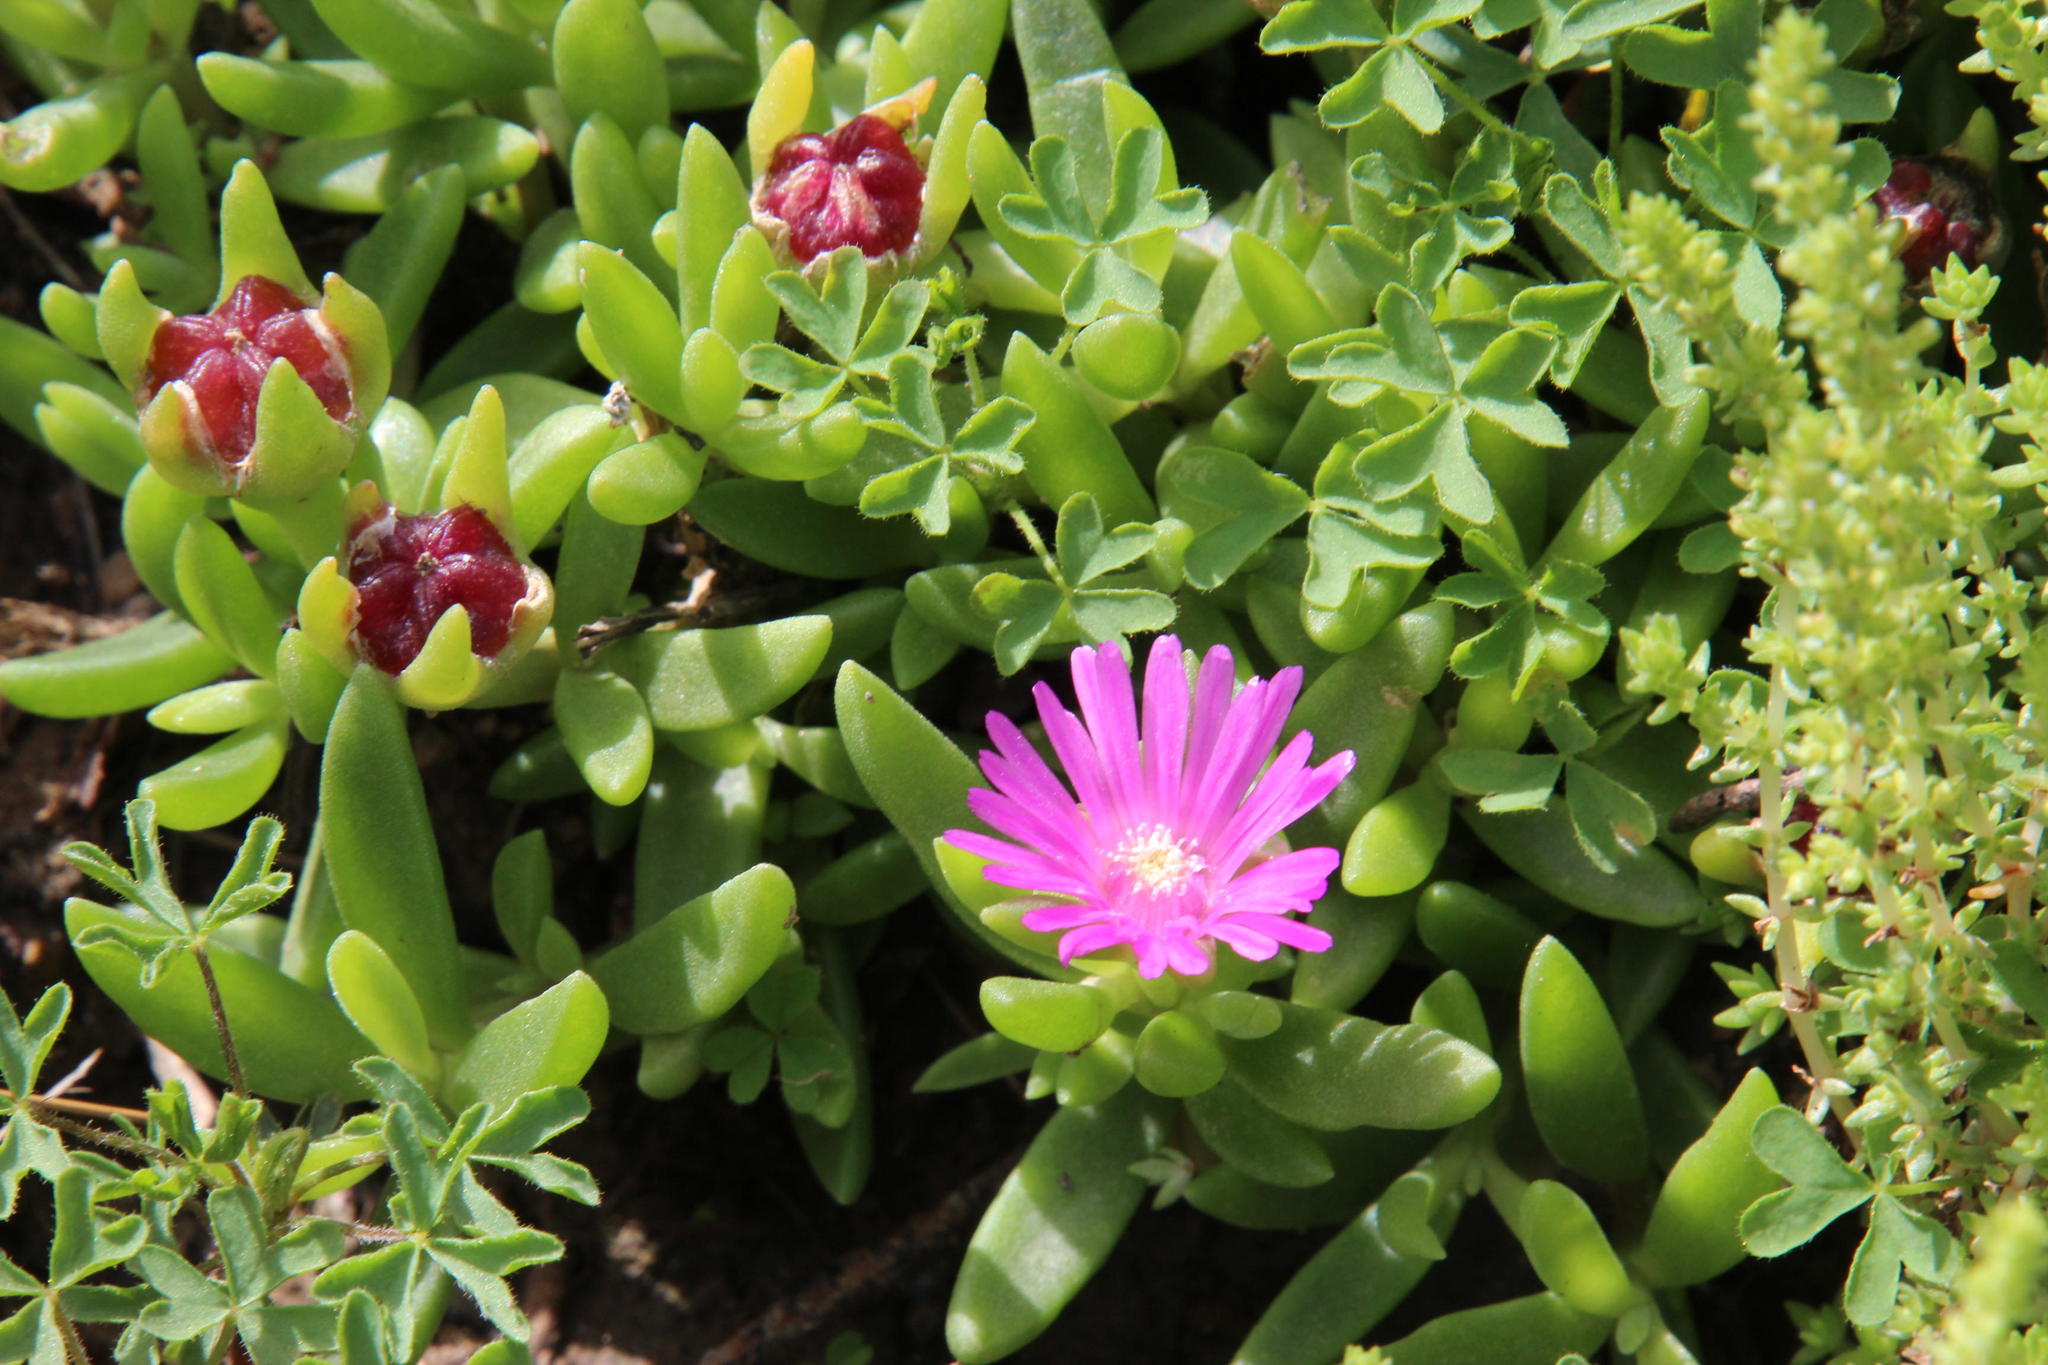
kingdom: Plantae
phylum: Tracheophyta
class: Magnoliopsida
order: Caryophyllales
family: Aizoaceae
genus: Delosperma
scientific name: Delosperma lavisiae
